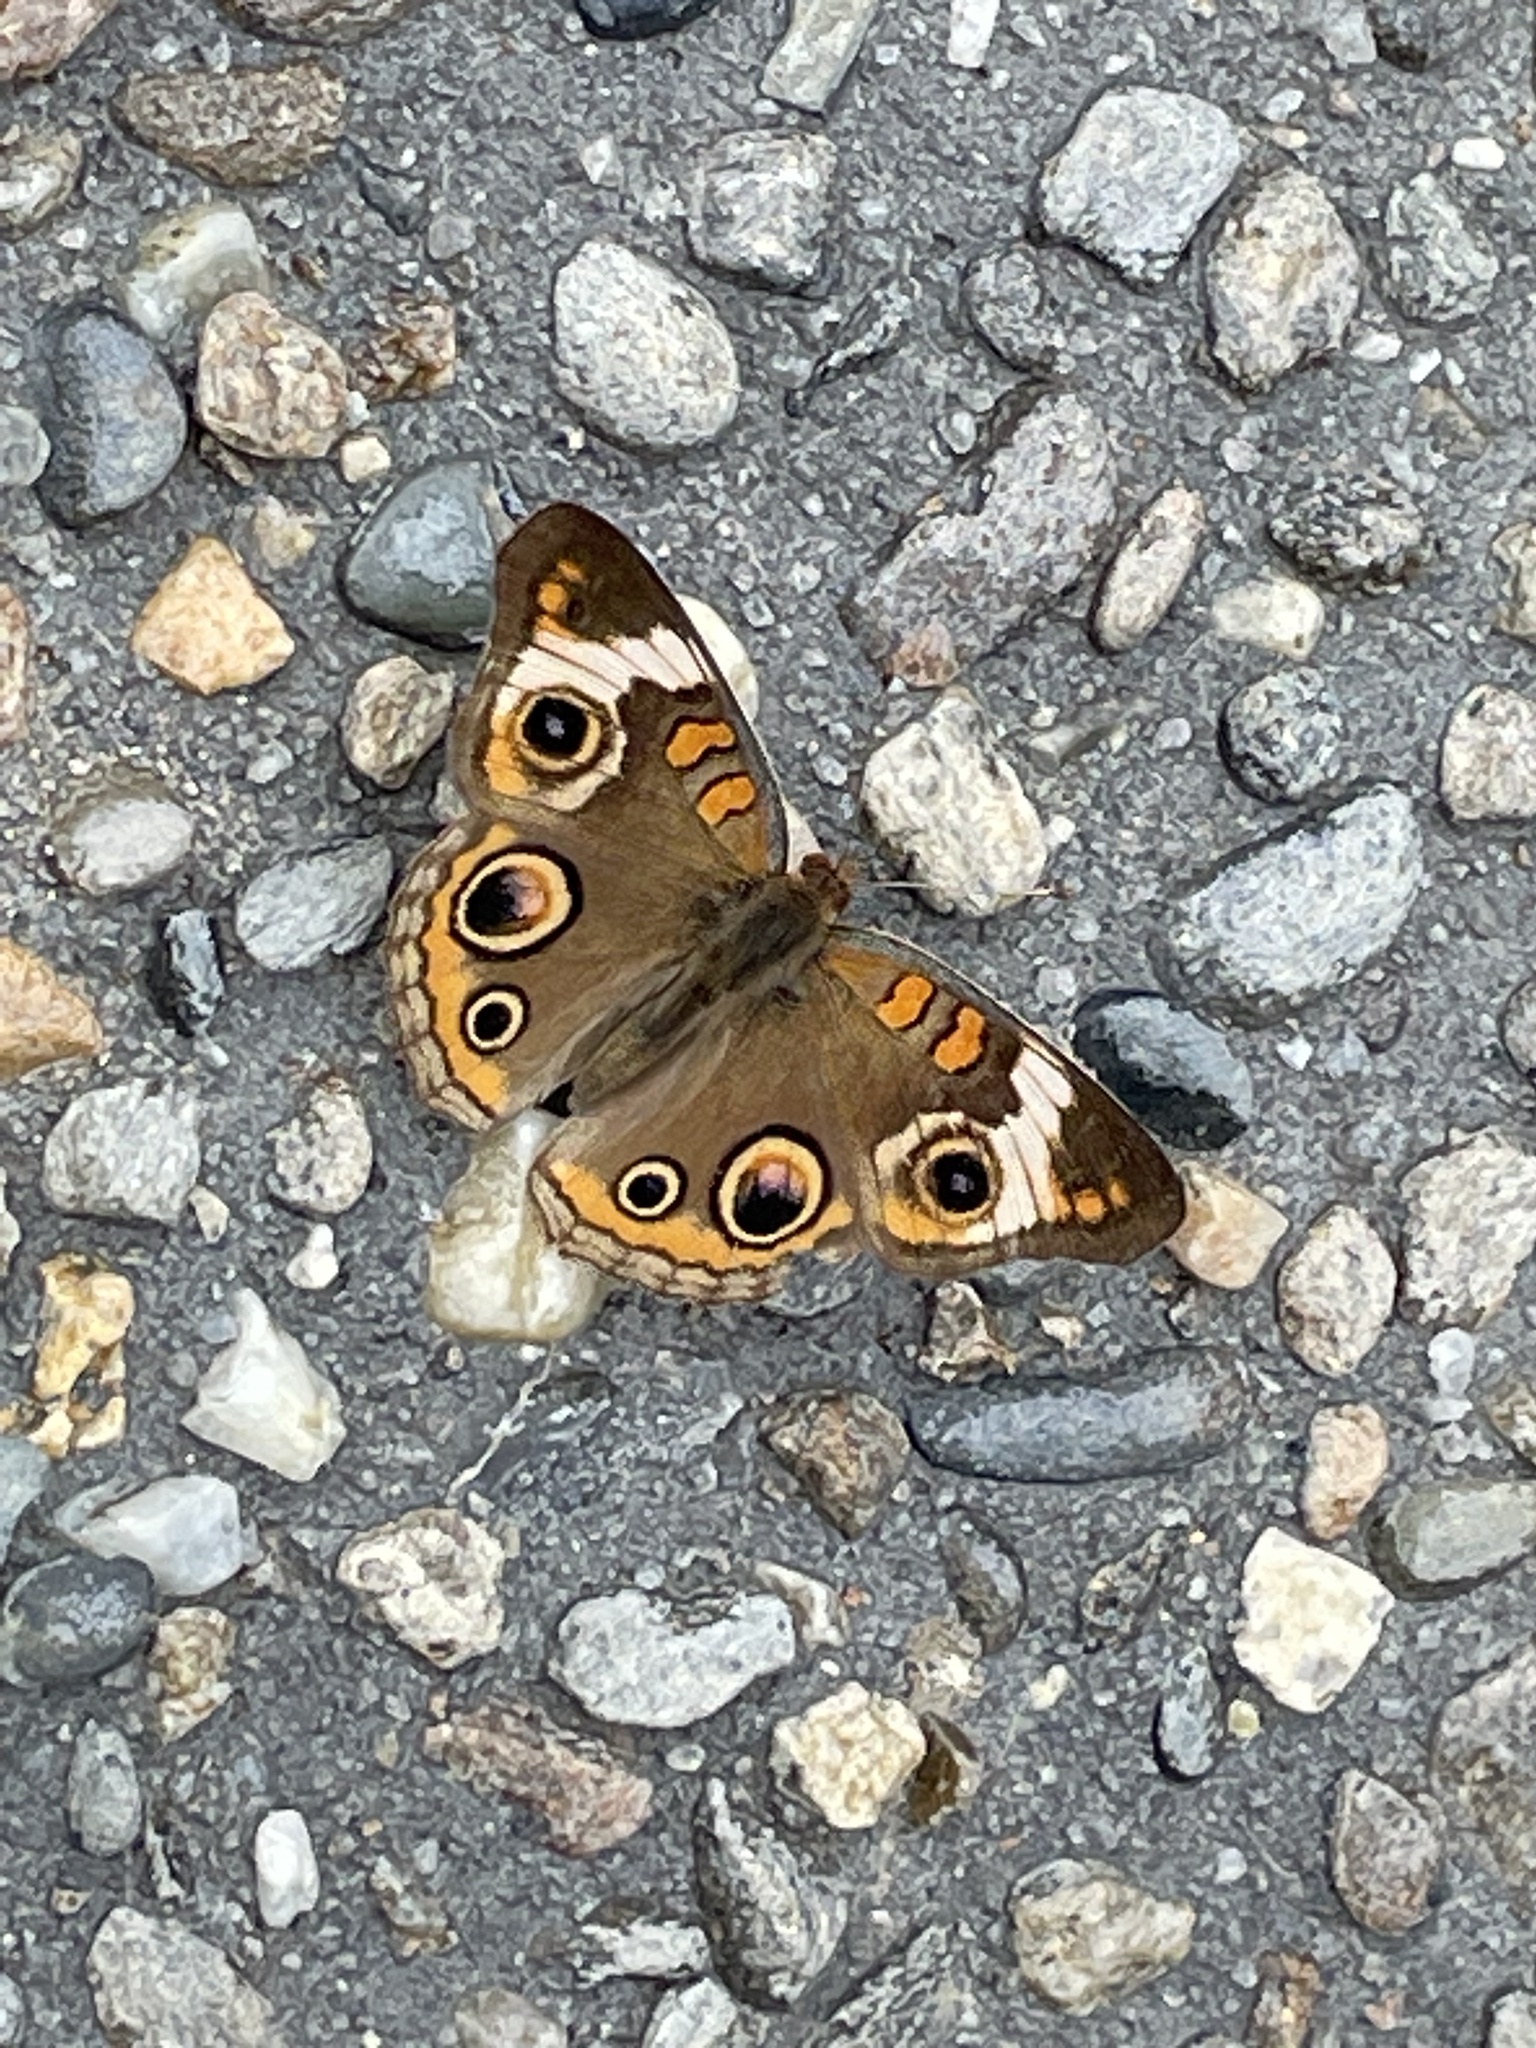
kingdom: Animalia
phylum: Arthropoda
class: Insecta
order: Lepidoptera
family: Nymphalidae
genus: Junonia
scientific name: Junonia coenia
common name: Common buckeye
